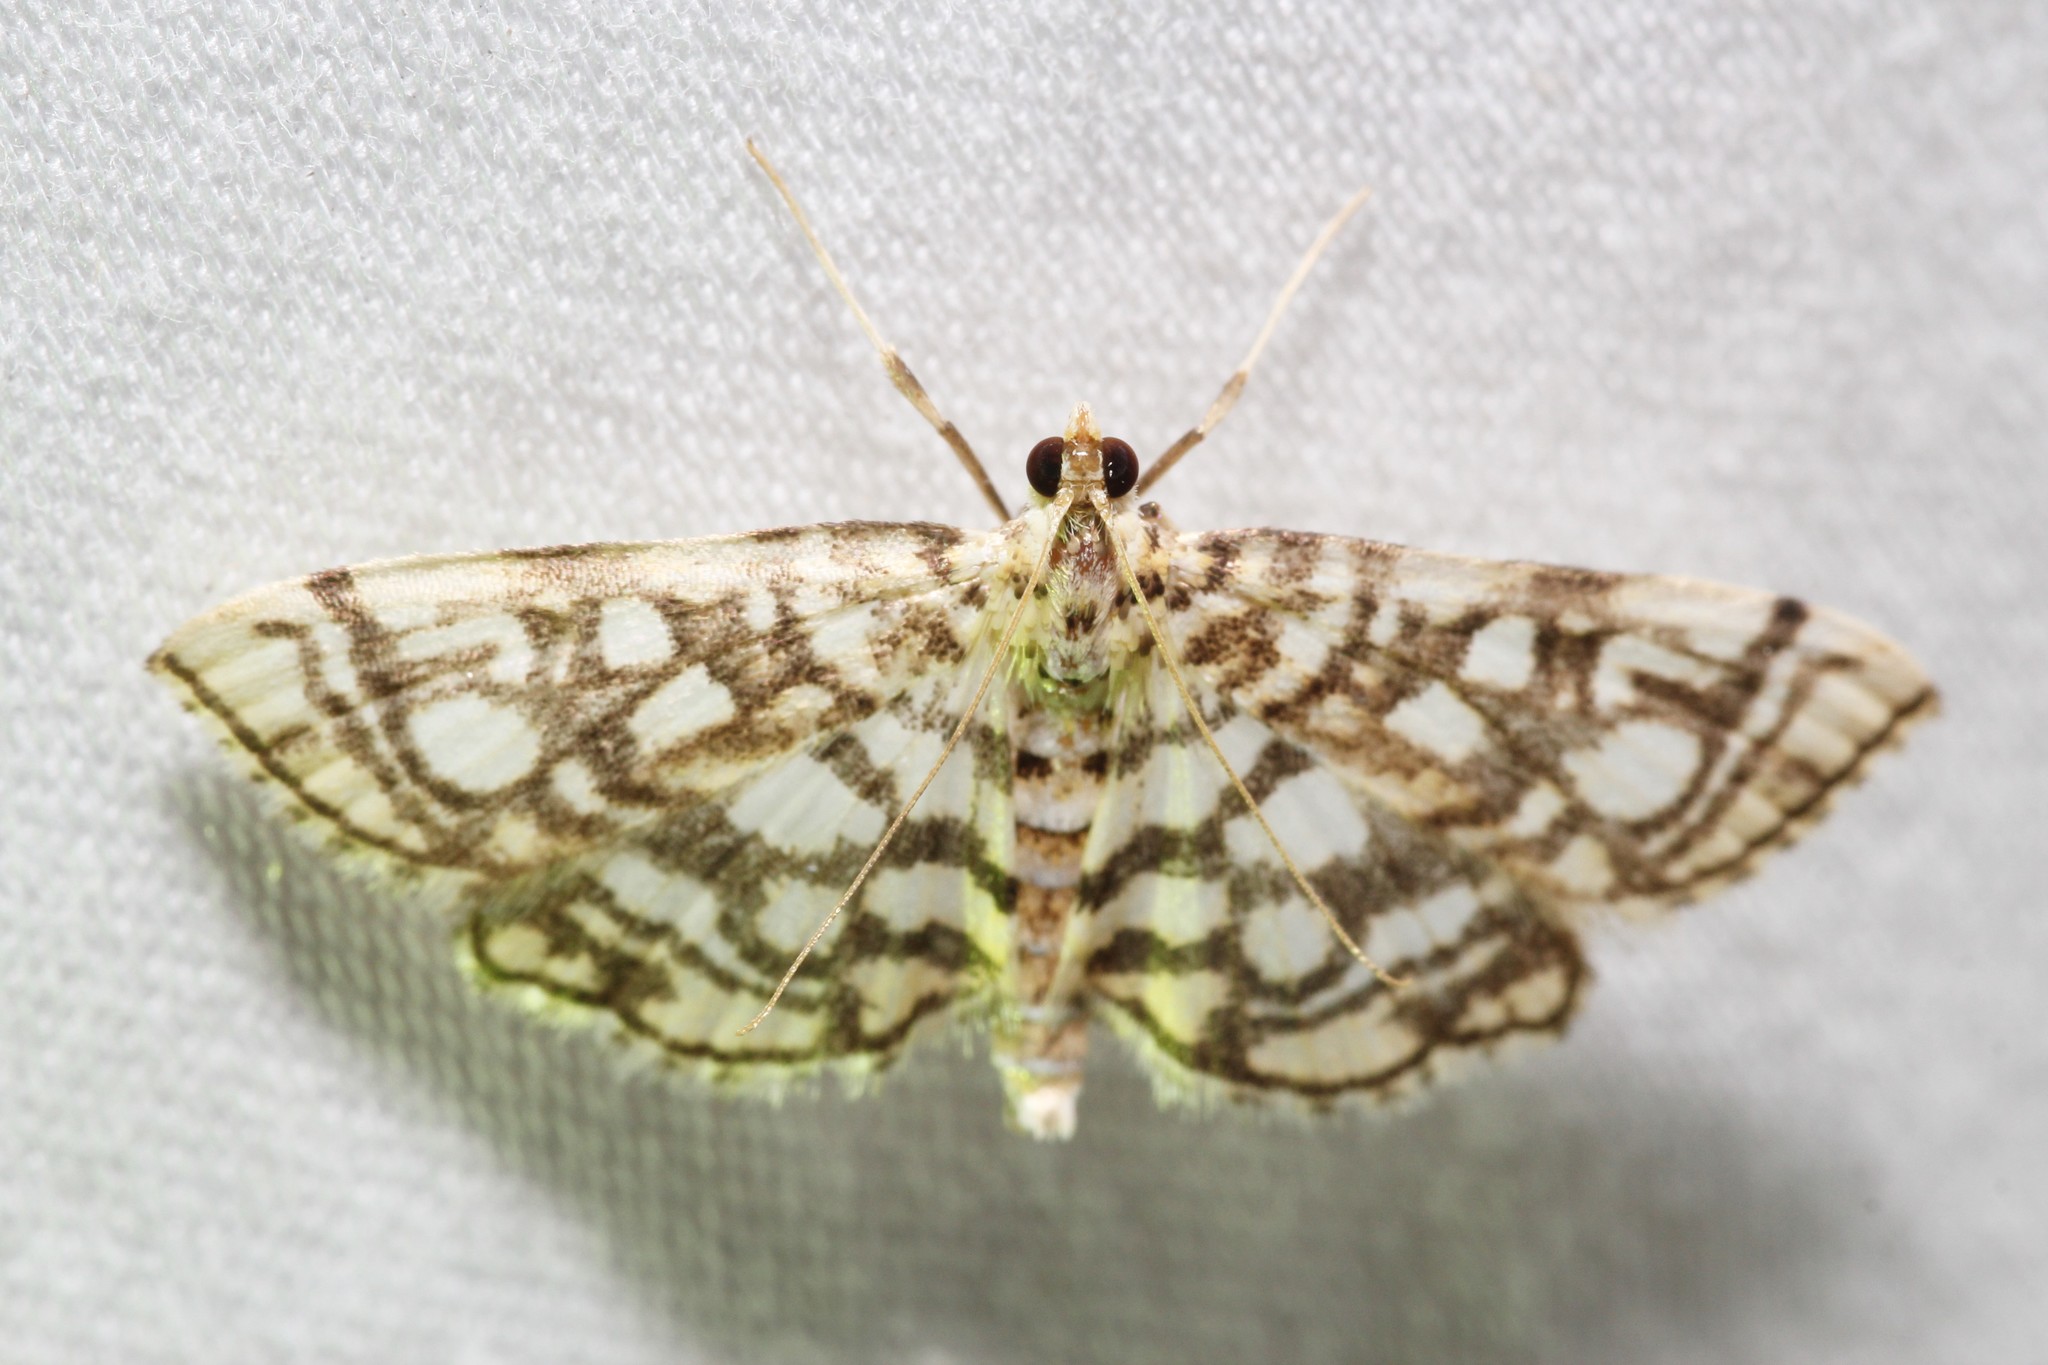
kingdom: Animalia
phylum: Arthropoda
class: Insecta
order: Lepidoptera
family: Crambidae
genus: Lygropia
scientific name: Lygropia rivulalis
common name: Bog lygropia moth
